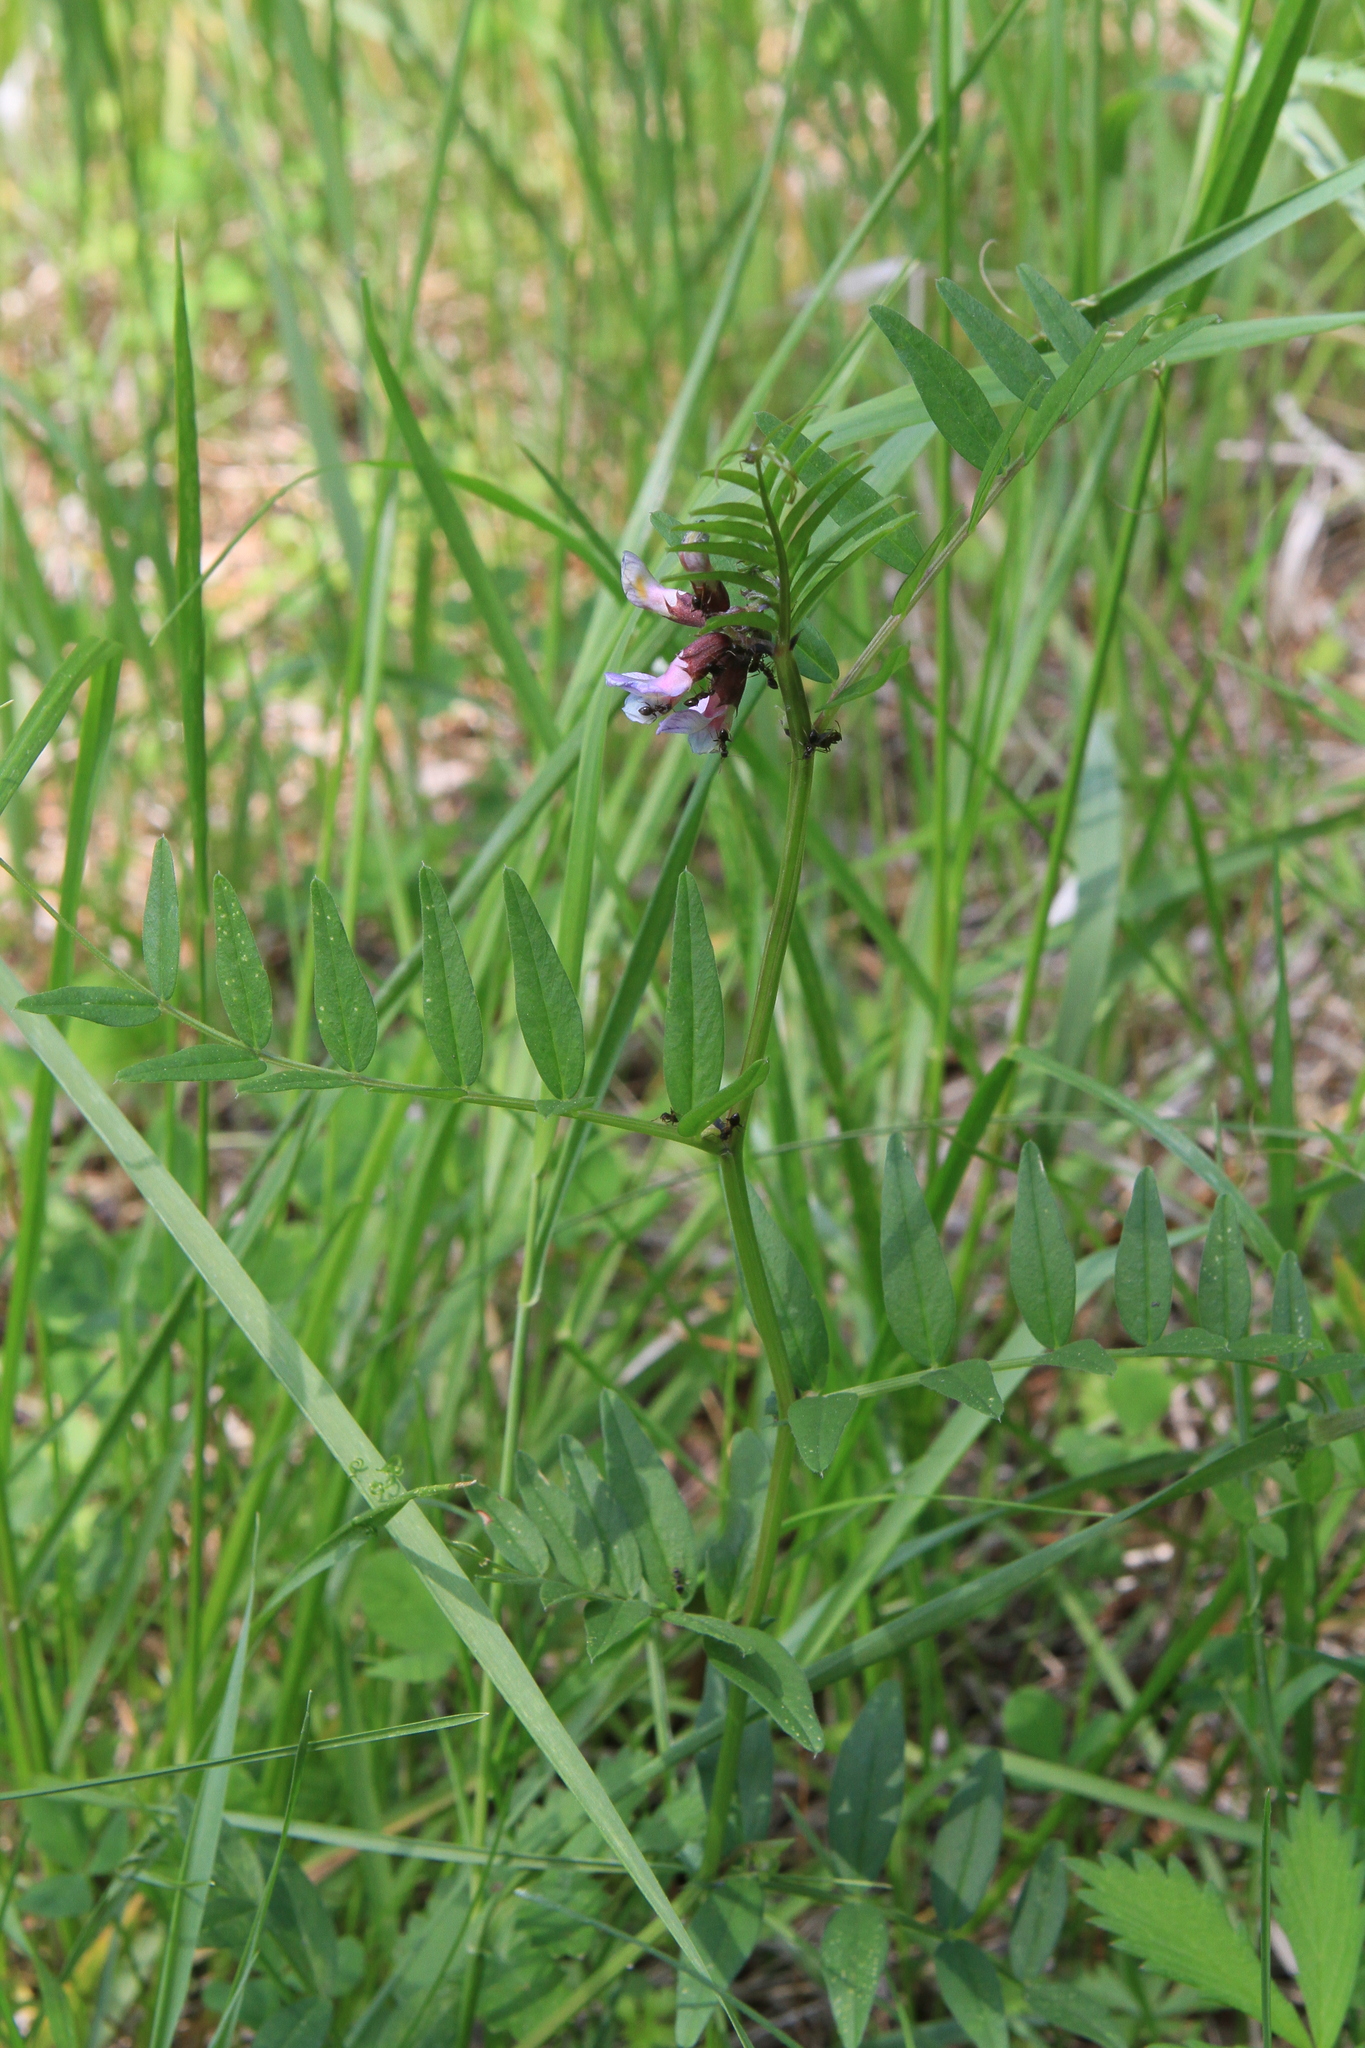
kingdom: Plantae
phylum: Tracheophyta
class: Magnoliopsida
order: Fabales
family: Fabaceae
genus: Vicia
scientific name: Vicia sepium
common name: Bush vetch
